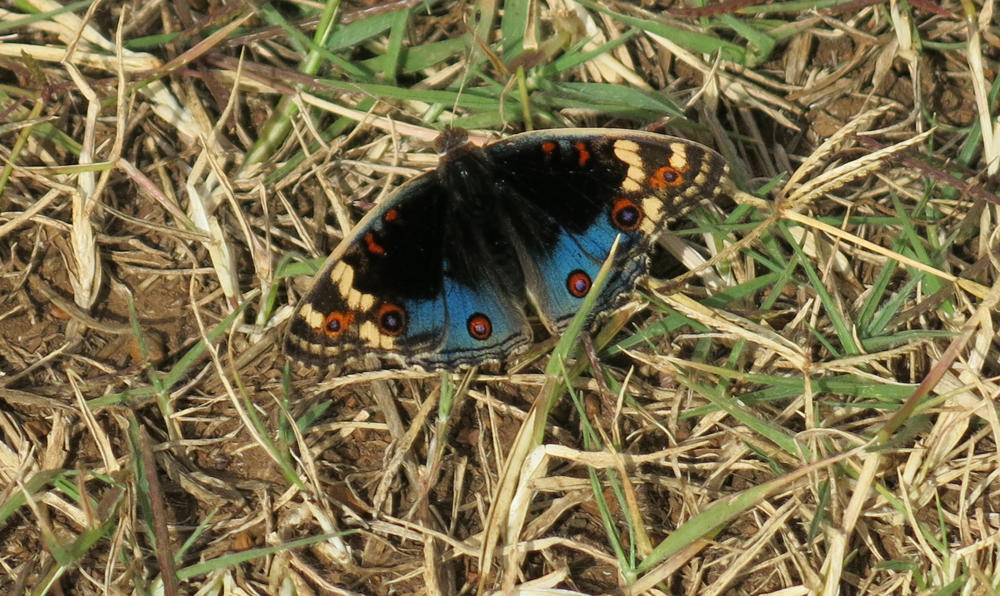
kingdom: Animalia
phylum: Arthropoda
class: Insecta
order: Lepidoptera
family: Nymphalidae
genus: Junonia
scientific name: Junonia orithya
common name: Blue pansy
